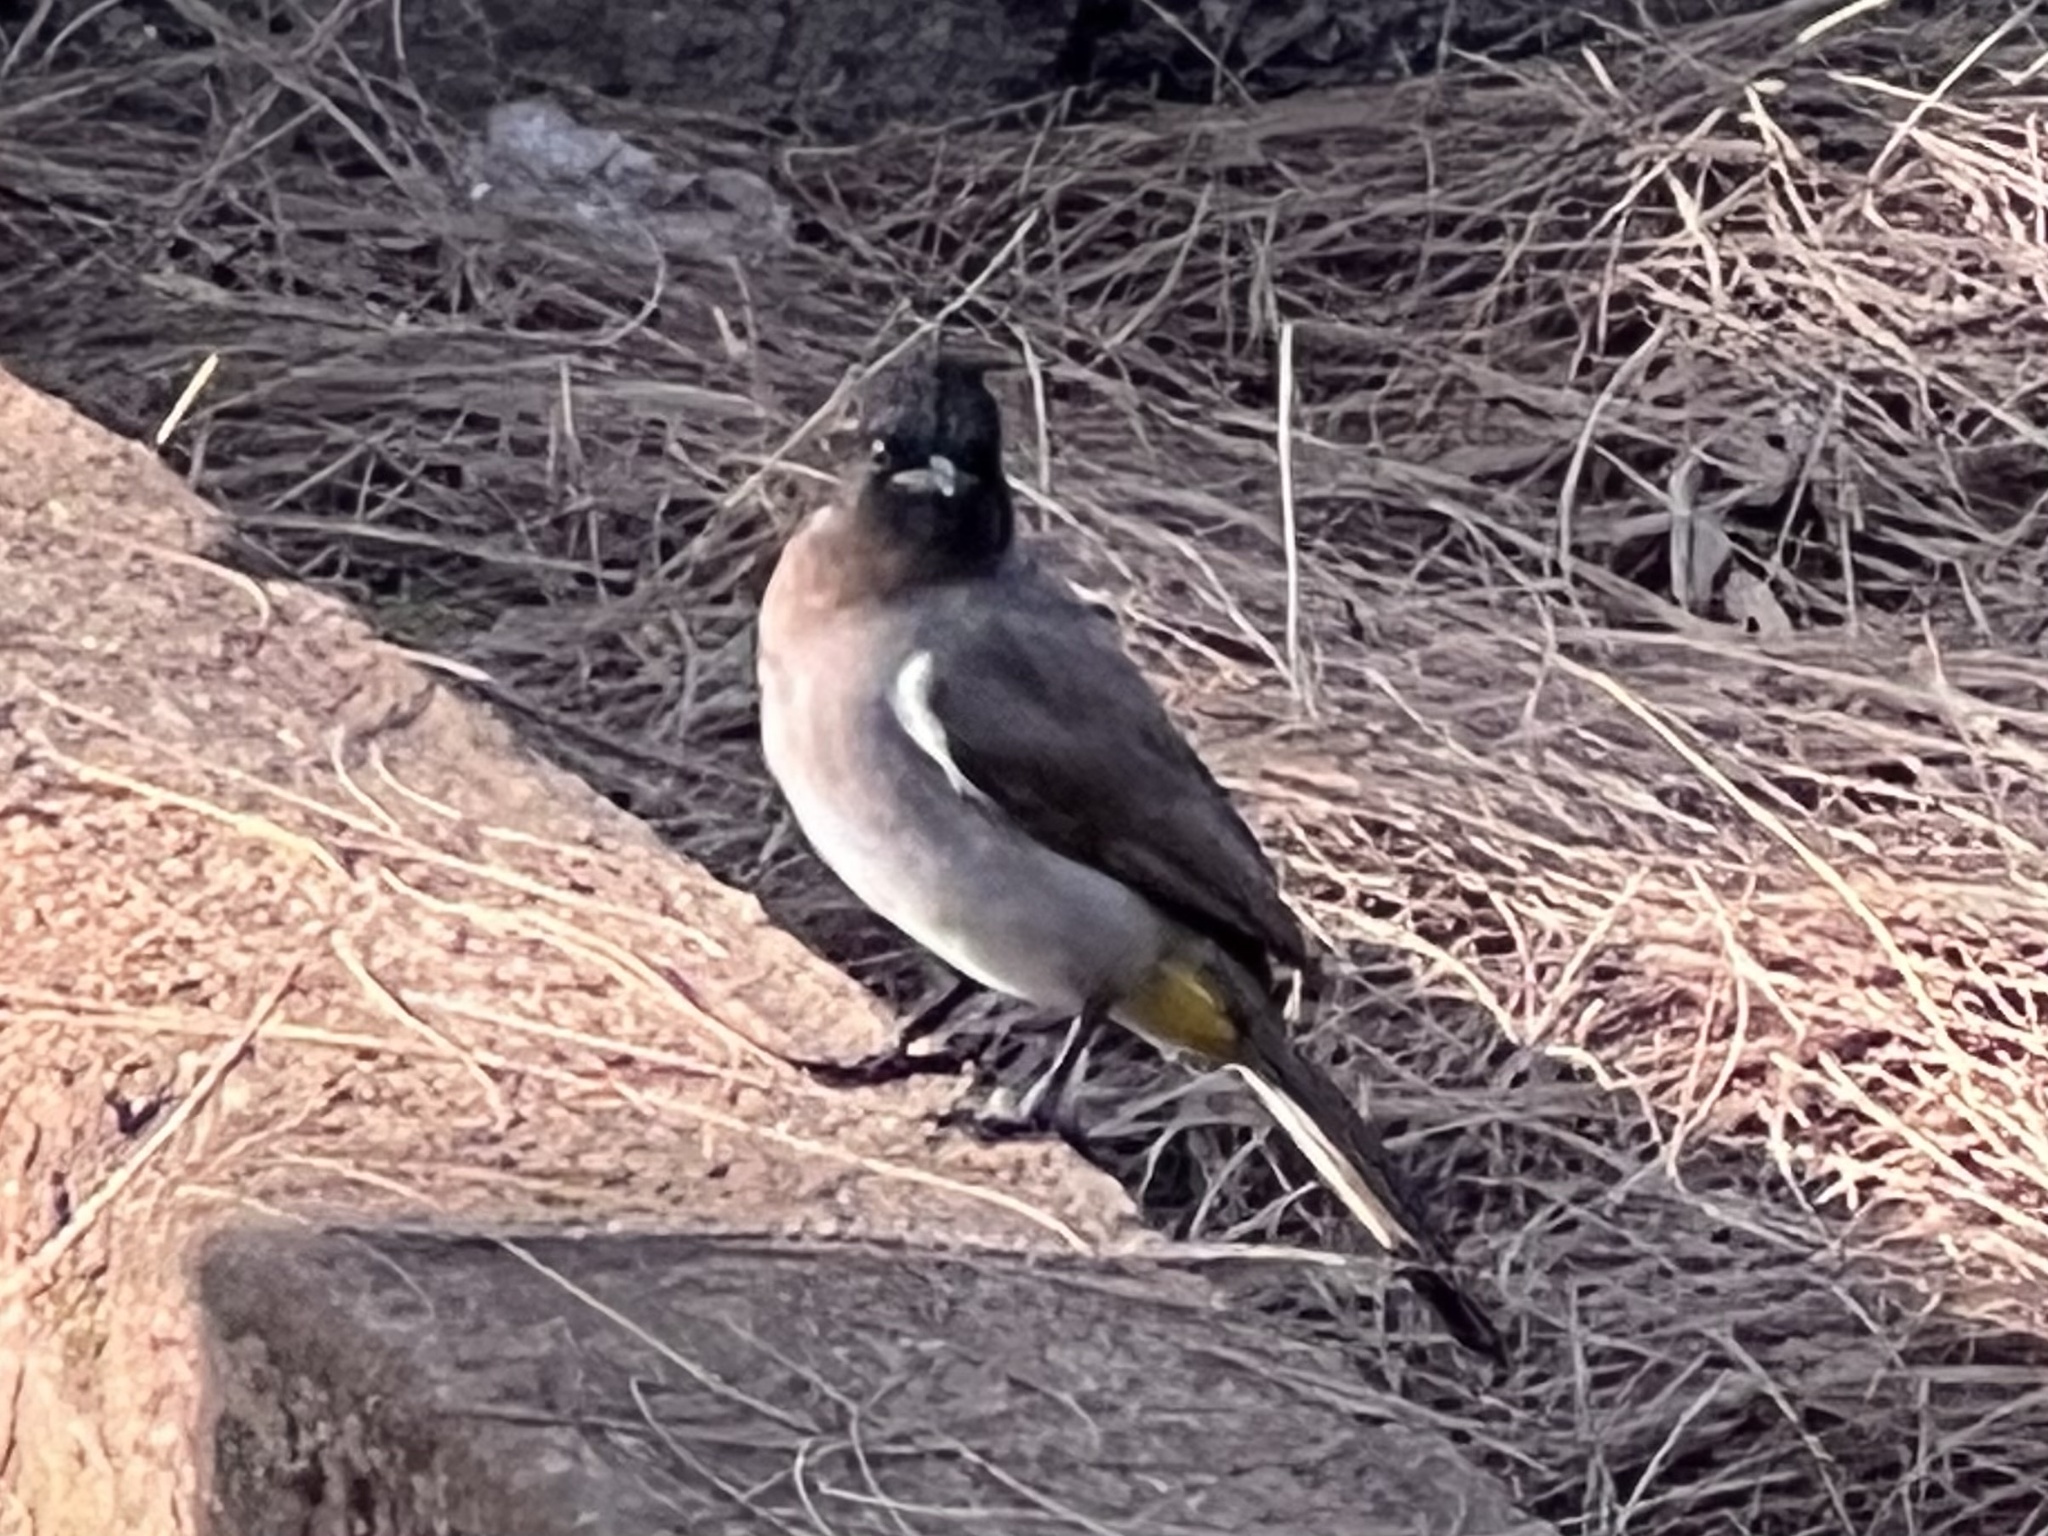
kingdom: Animalia
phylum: Chordata
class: Aves
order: Passeriformes
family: Pycnonotidae
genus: Pycnonotus
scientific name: Pycnonotus barbatus
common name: Common bulbul
